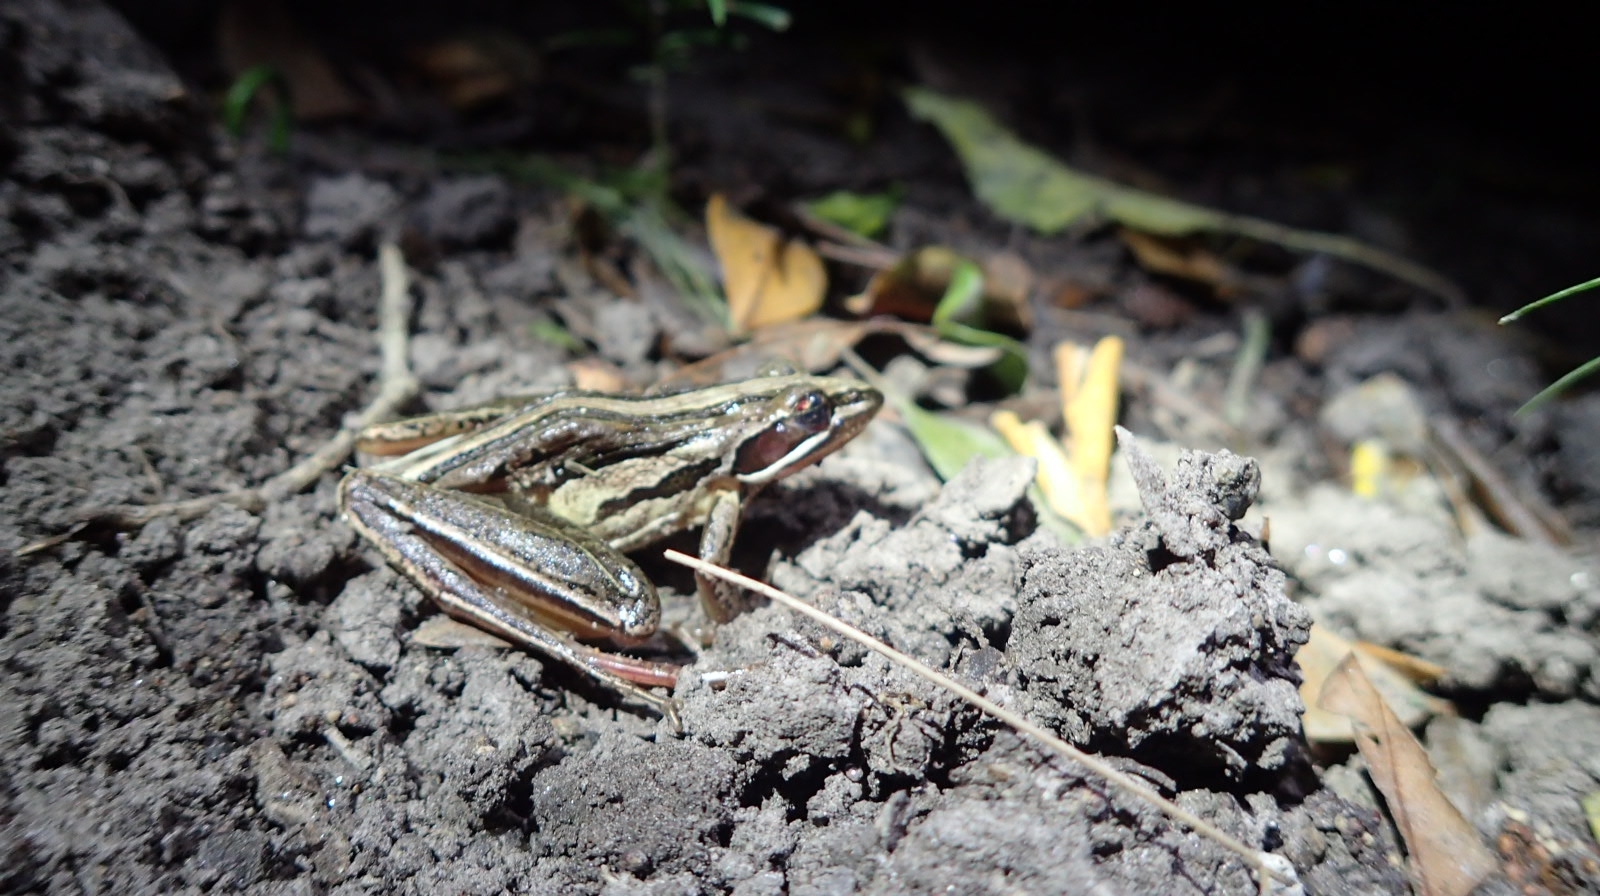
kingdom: Animalia
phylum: Chordata
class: Amphibia
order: Anura
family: Pyxicephalidae
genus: Strongylopus
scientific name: Strongylopus fasciatus
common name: Striped stream frog
